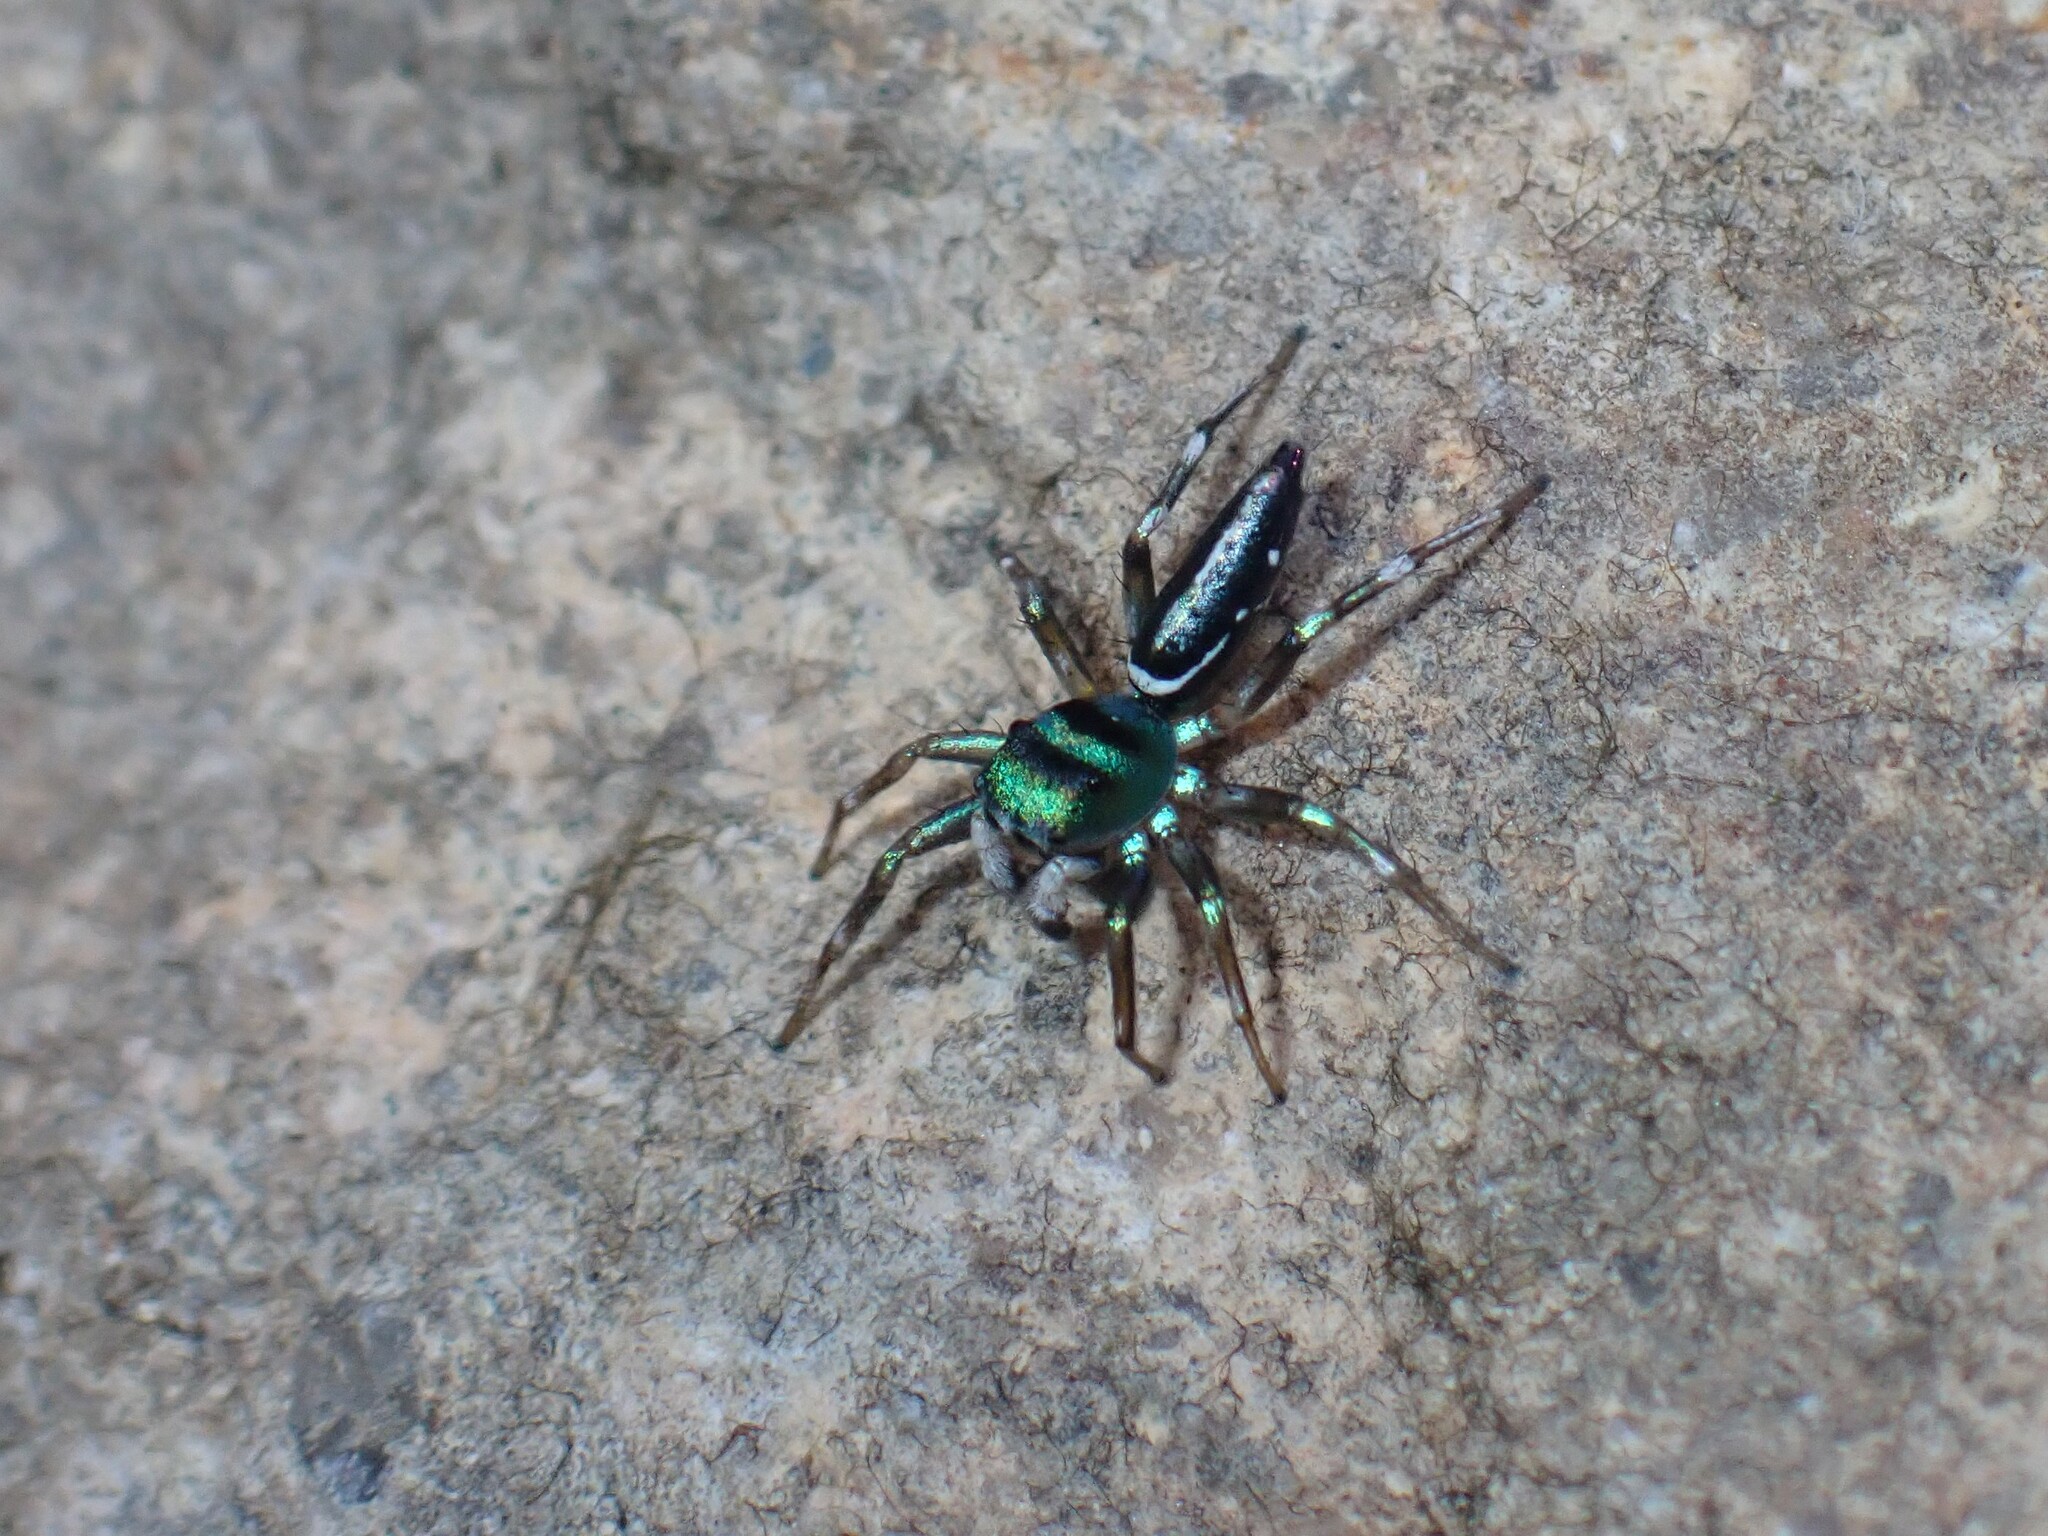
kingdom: Animalia
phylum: Arthropoda
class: Arachnida
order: Araneae
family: Salticidae
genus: Cosmophasis
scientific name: Cosmophasis thalassina
